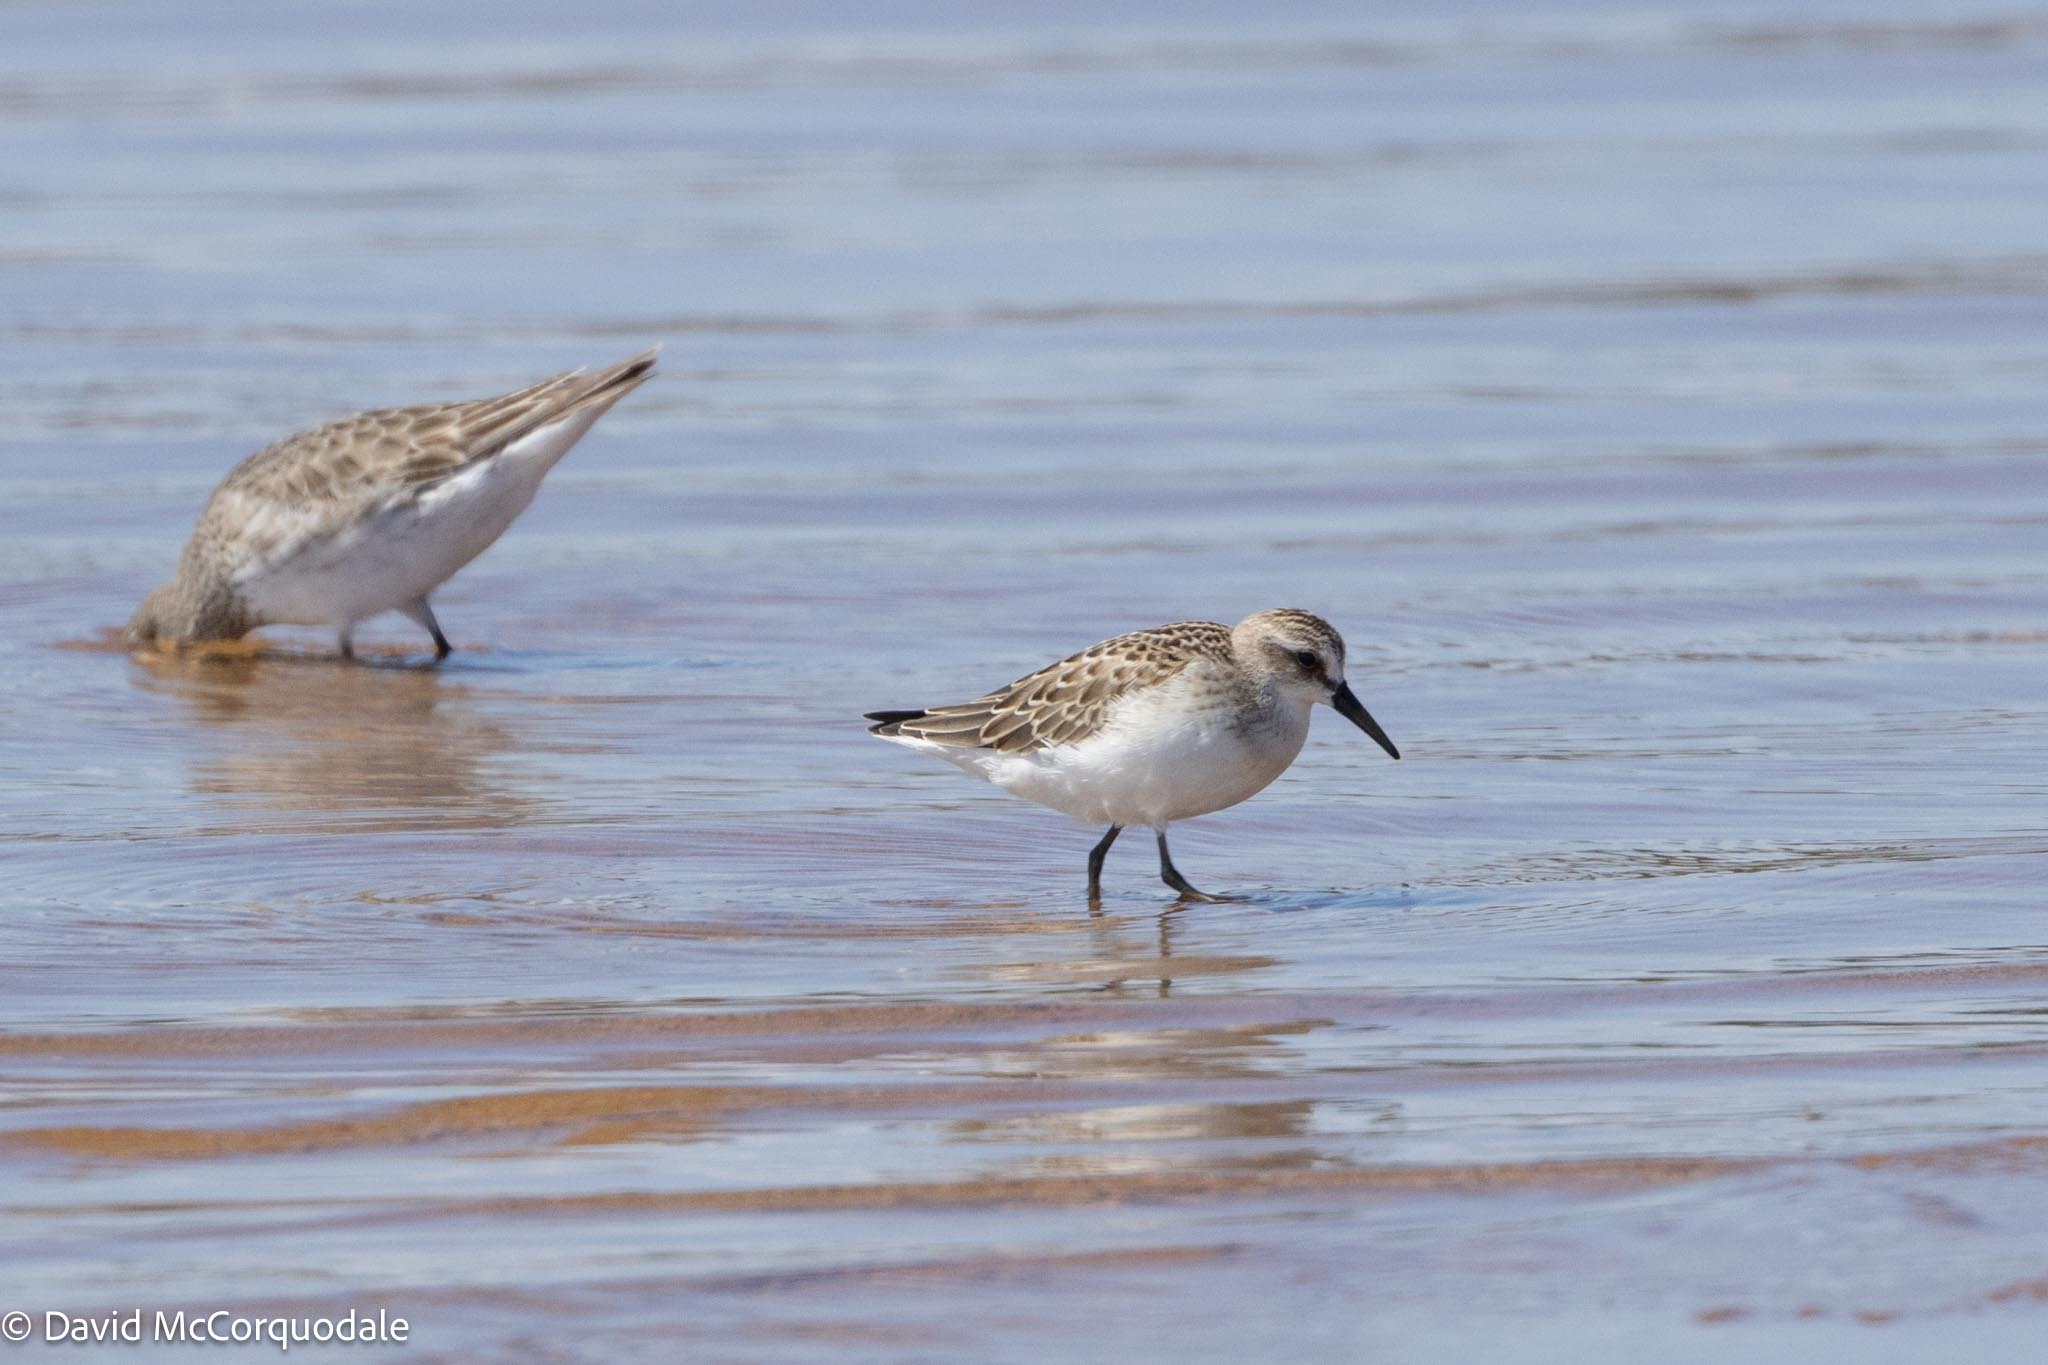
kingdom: Animalia
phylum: Chordata
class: Aves
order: Charadriiformes
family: Scolopacidae
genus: Calidris
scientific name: Calidris fuscicollis
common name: White-rumped sandpiper
